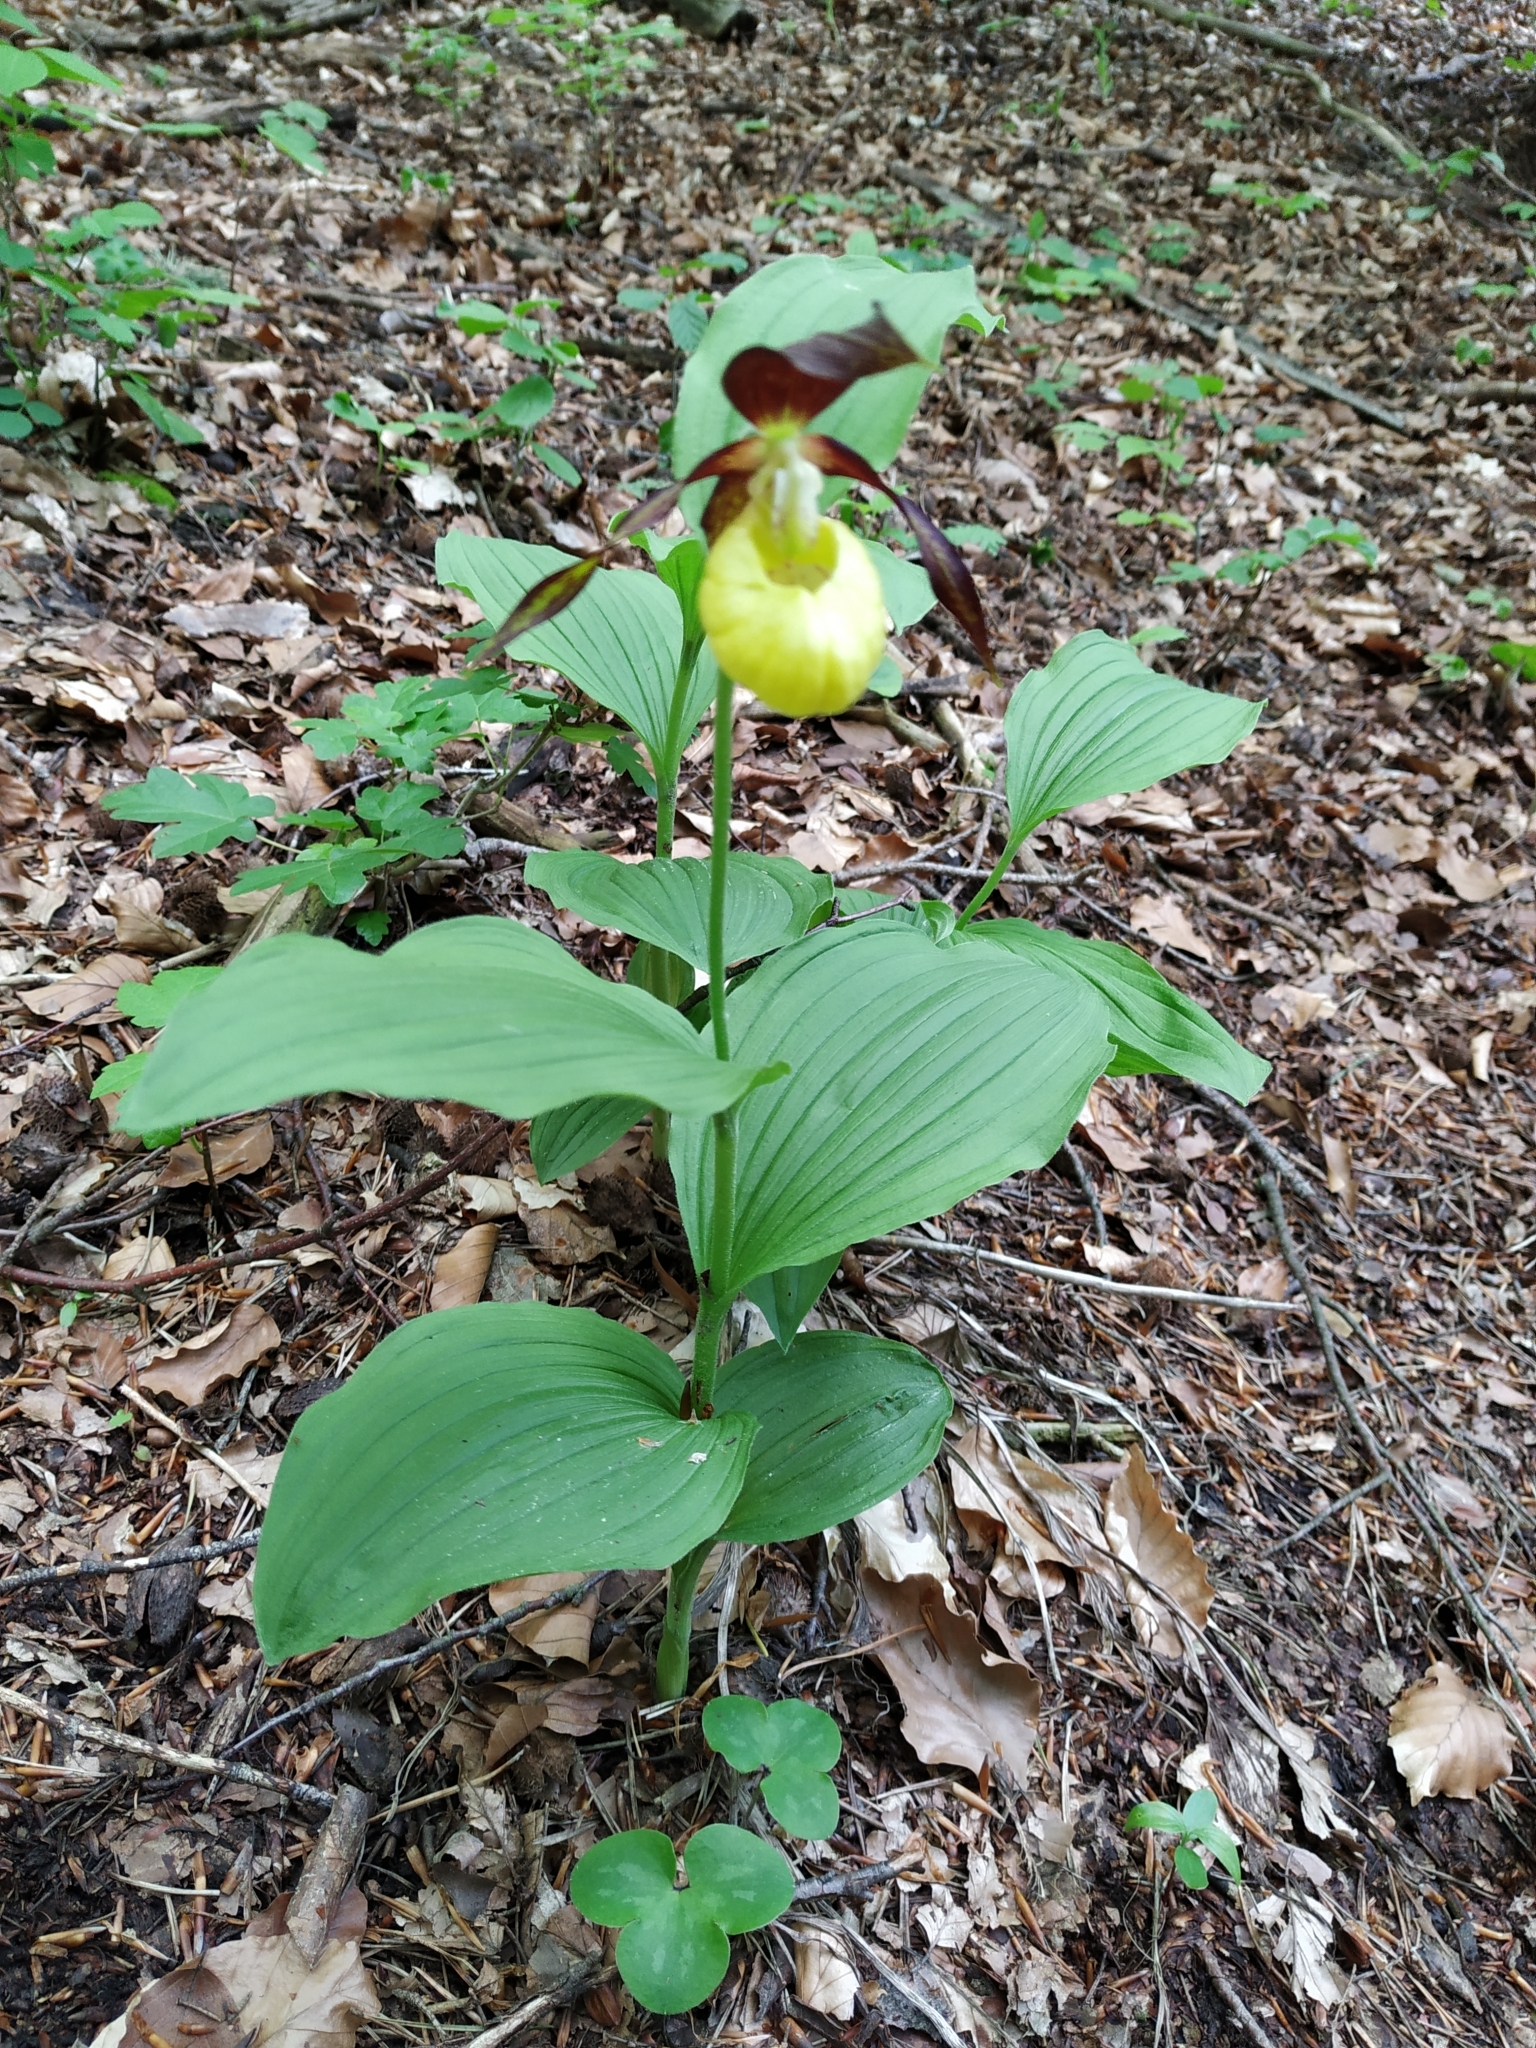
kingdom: Plantae
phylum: Tracheophyta
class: Liliopsida
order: Asparagales
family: Orchidaceae
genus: Cypripedium
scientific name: Cypripedium calceolus
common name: Lady's-slipper
